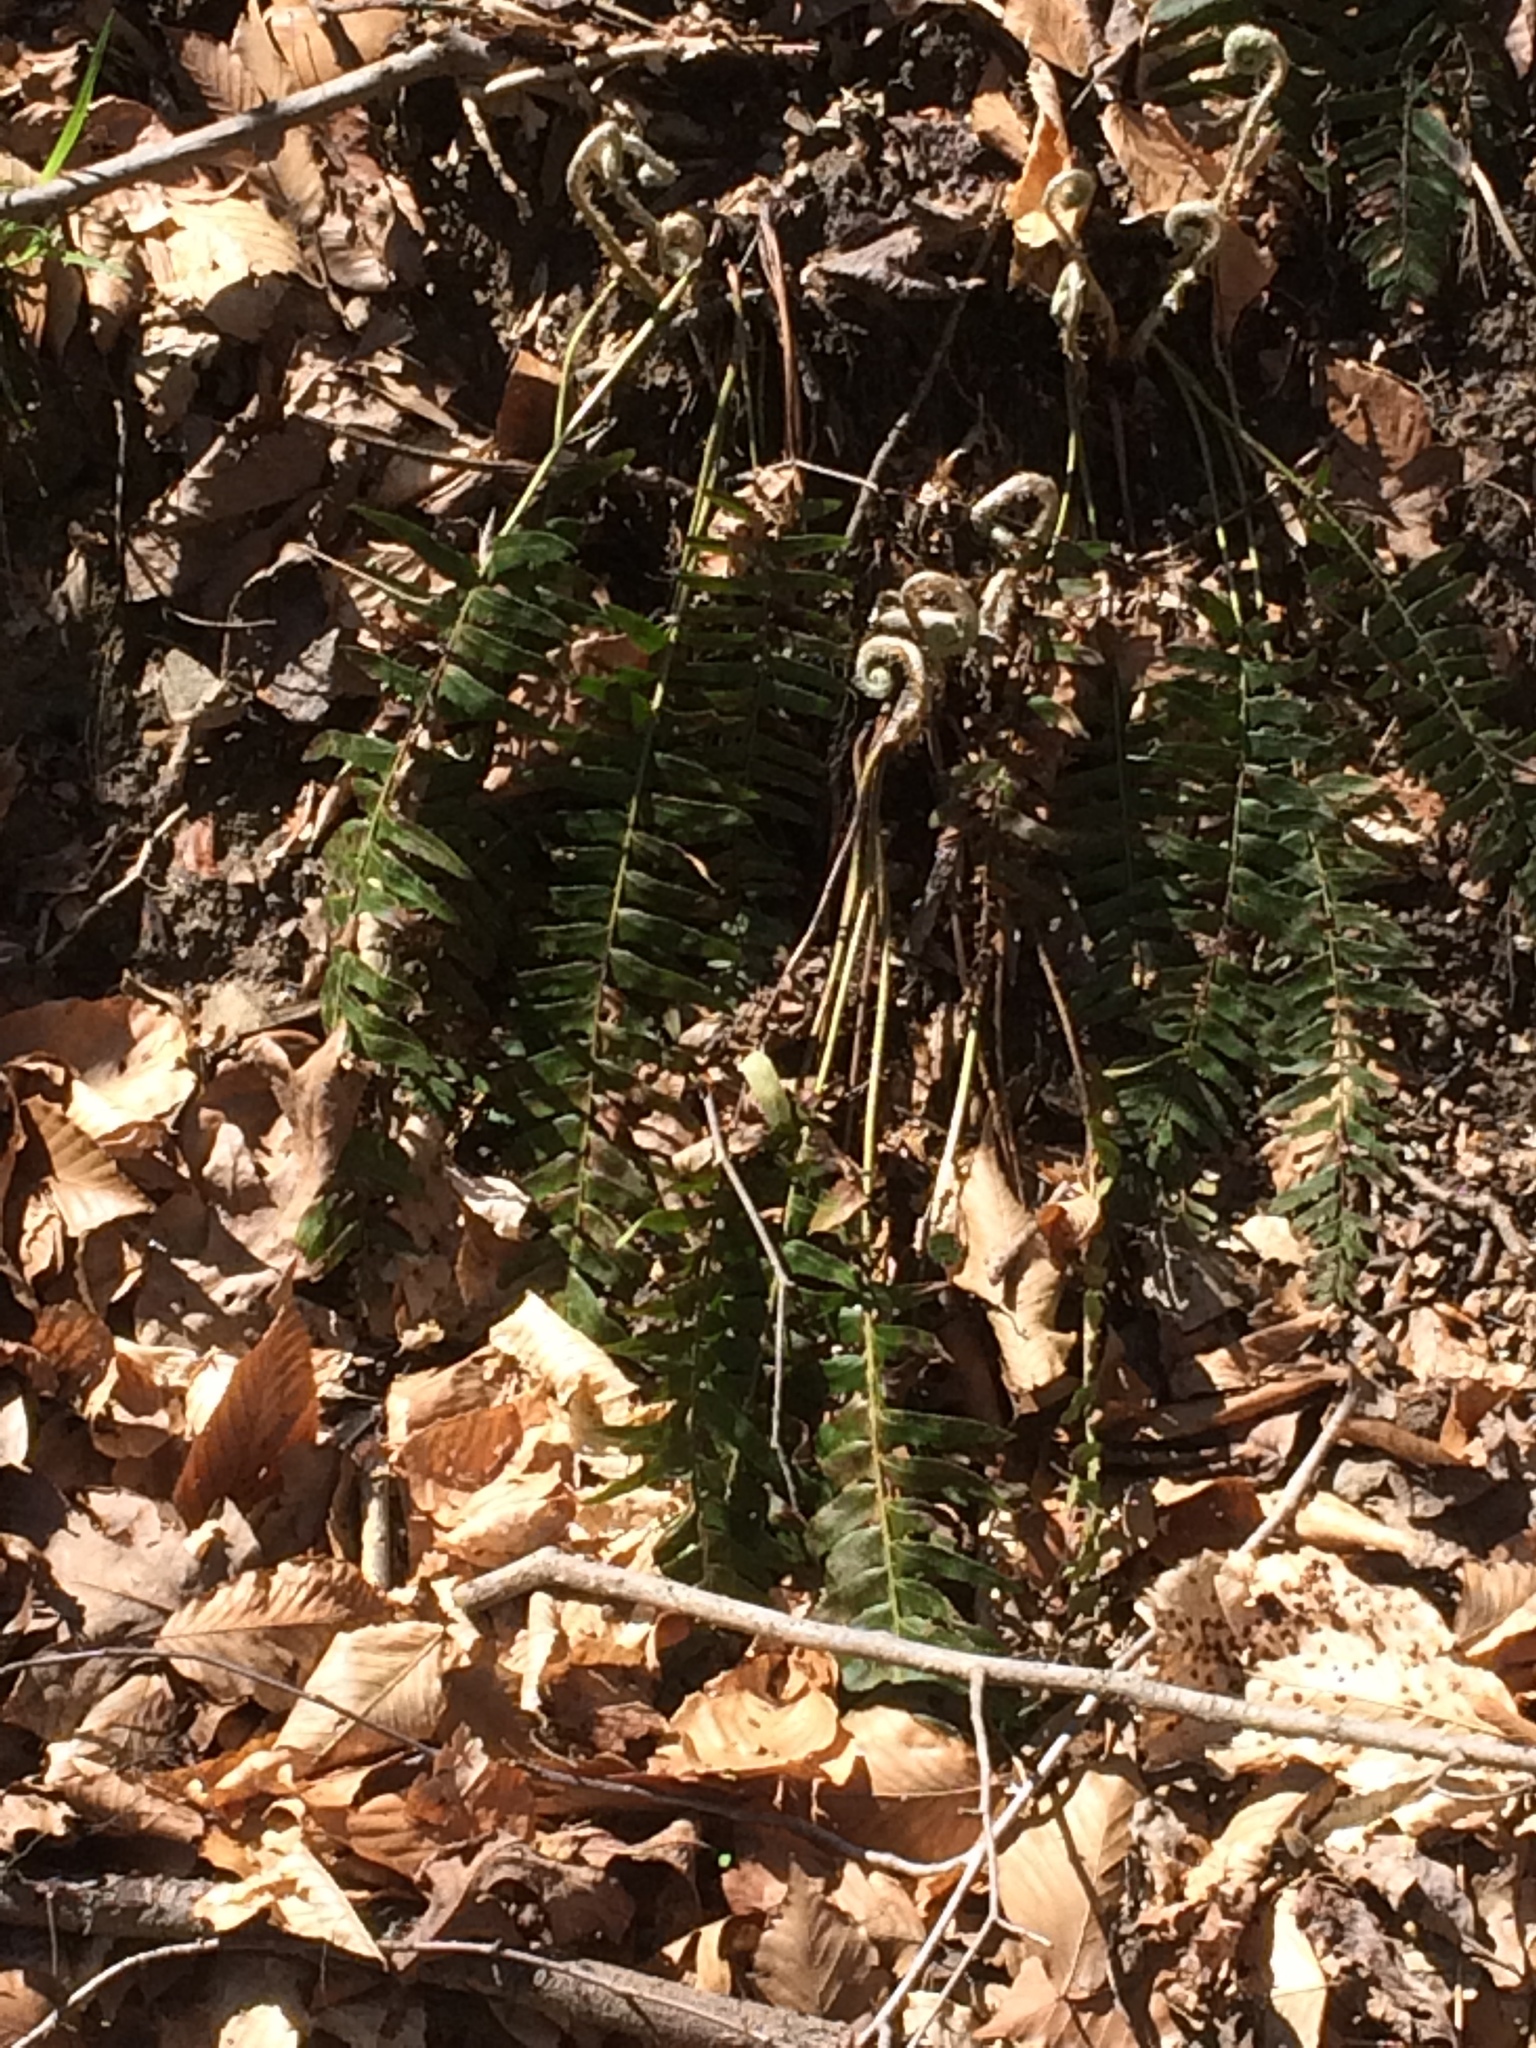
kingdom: Plantae
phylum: Tracheophyta
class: Polypodiopsida
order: Polypodiales
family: Dryopteridaceae
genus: Polystichum
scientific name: Polystichum acrostichoides
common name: Christmas fern
